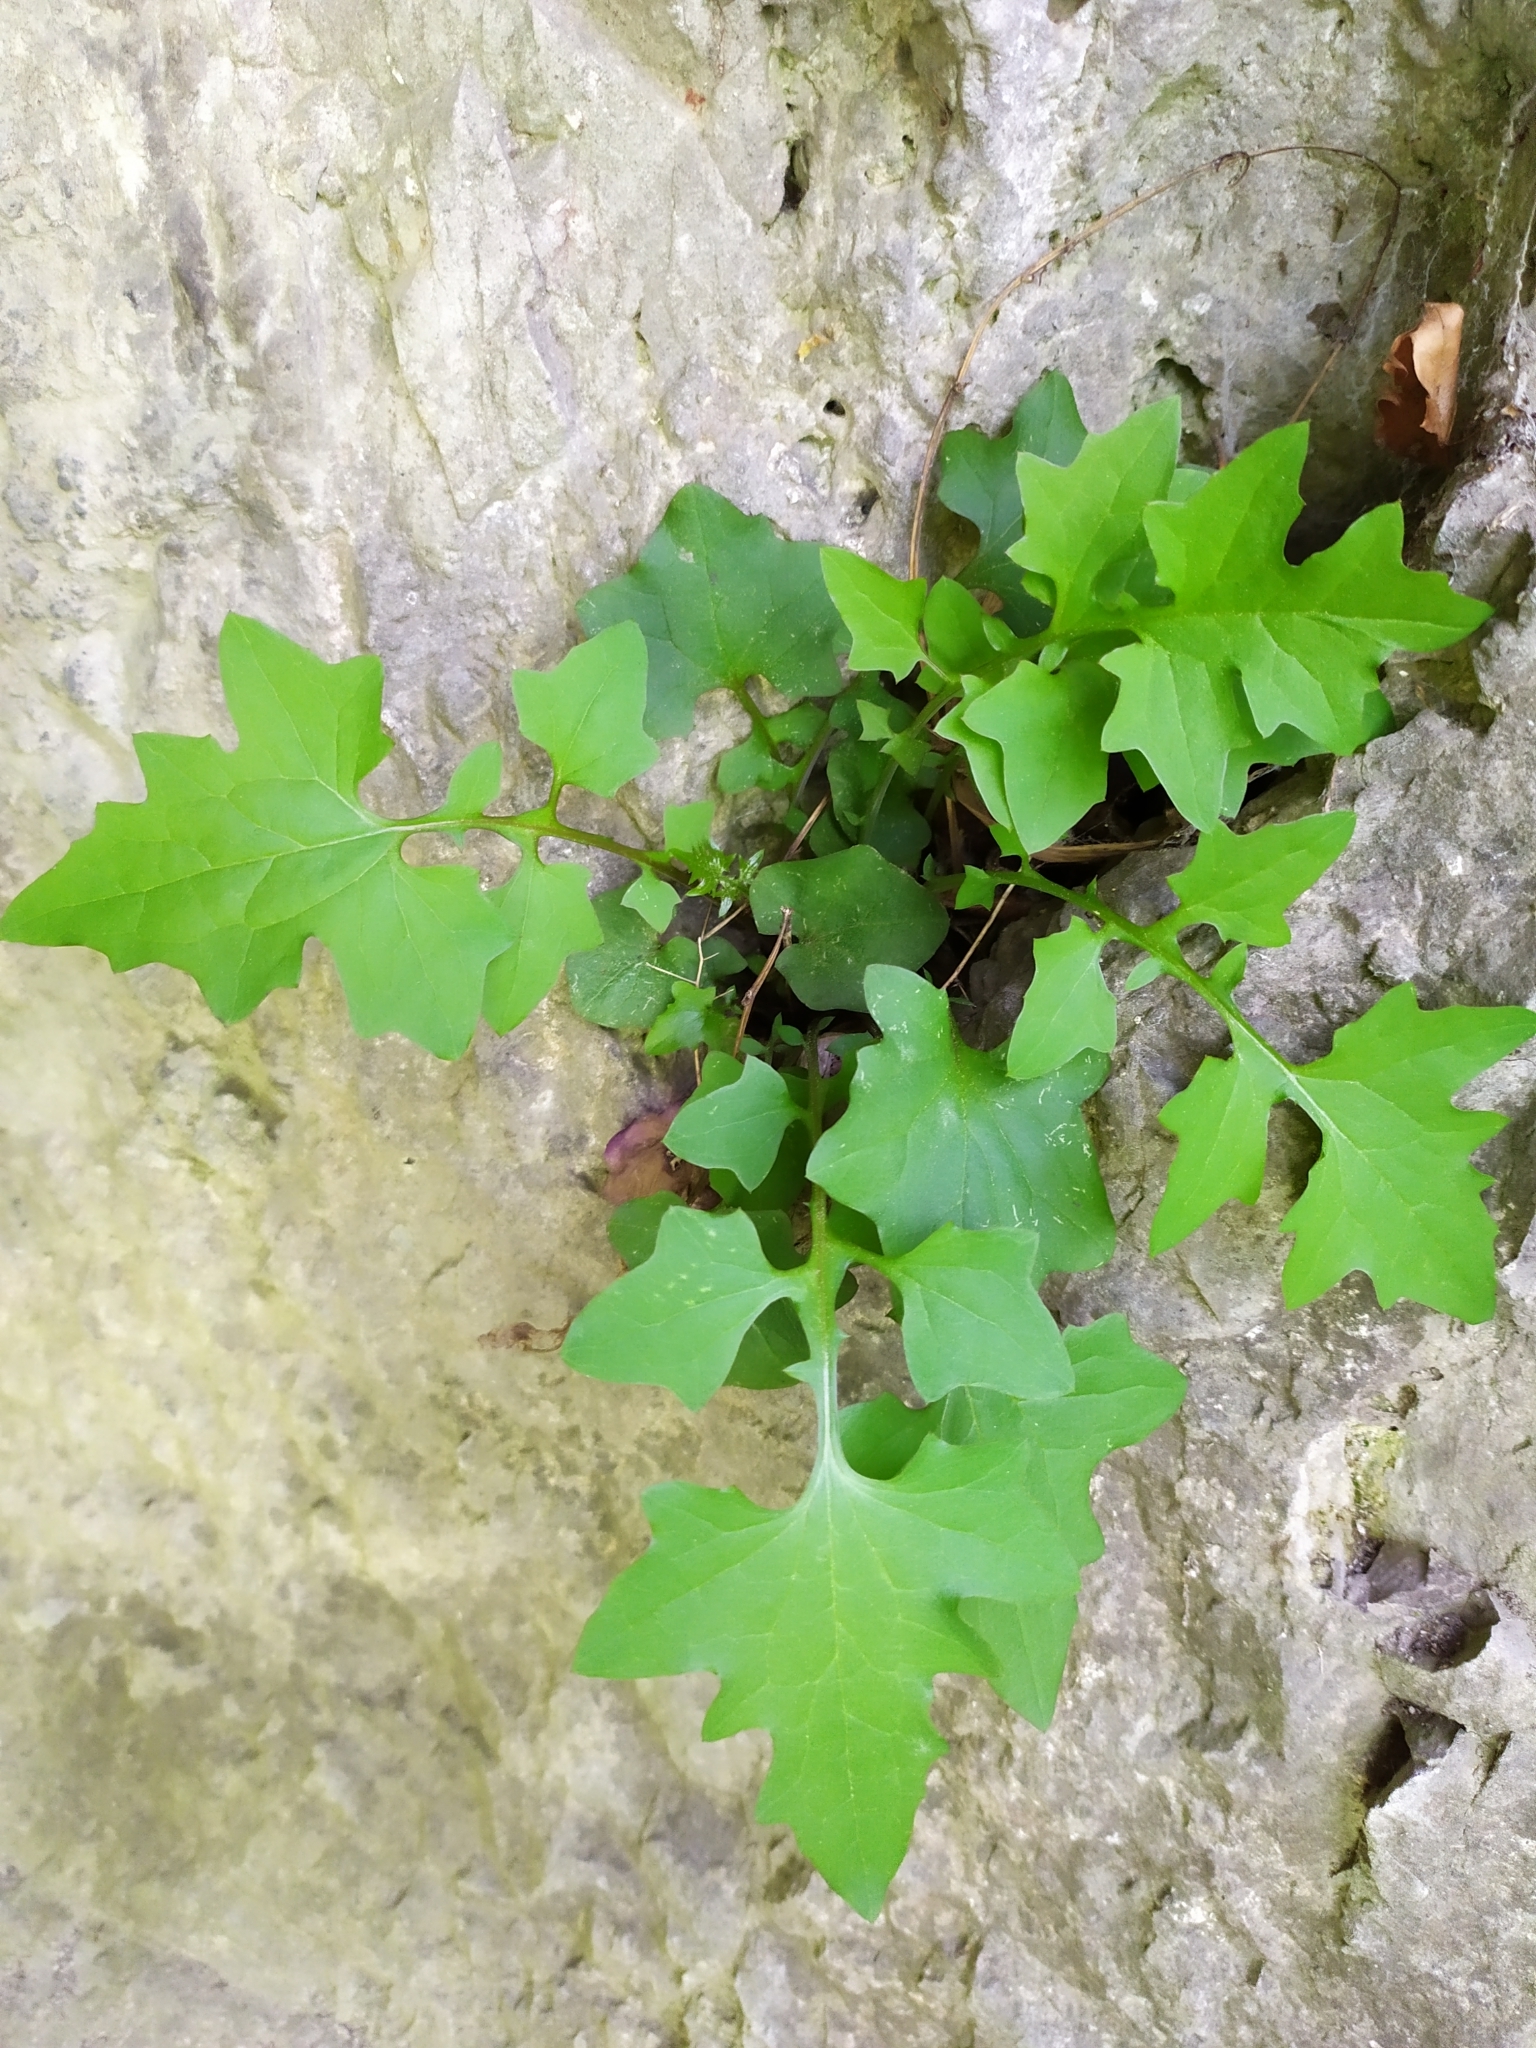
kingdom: Plantae
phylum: Tracheophyta
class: Magnoliopsida
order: Asterales
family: Asteraceae
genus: Mycelis
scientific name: Mycelis muralis
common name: Wall lettuce
